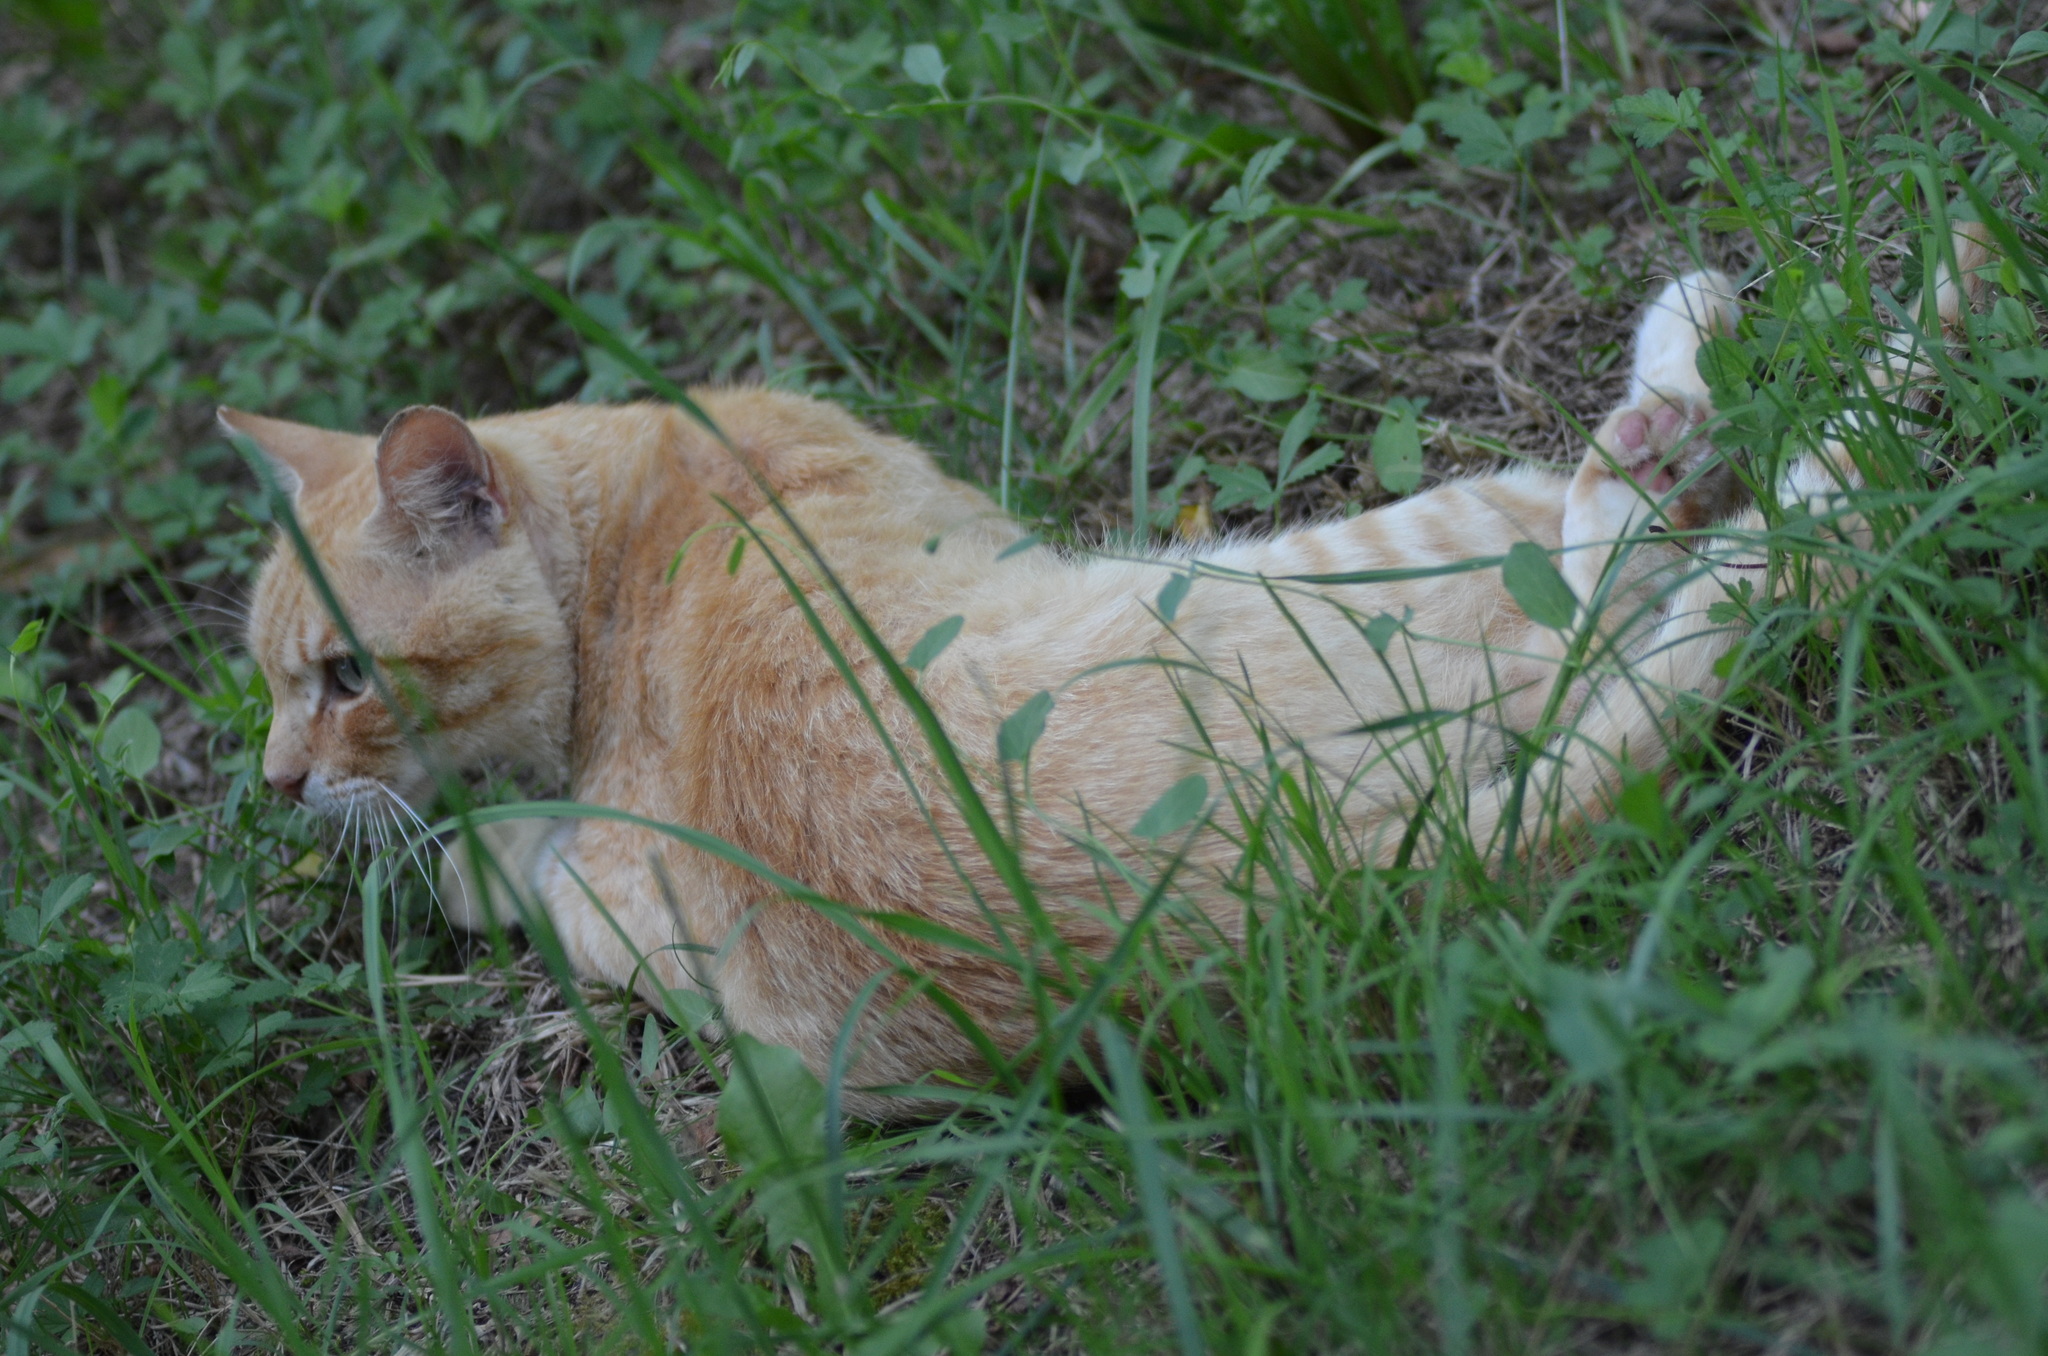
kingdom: Animalia
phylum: Chordata
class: Mammalia
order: Carnivora
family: Felidae
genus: Felis
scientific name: Felis catus
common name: Domestic cat
